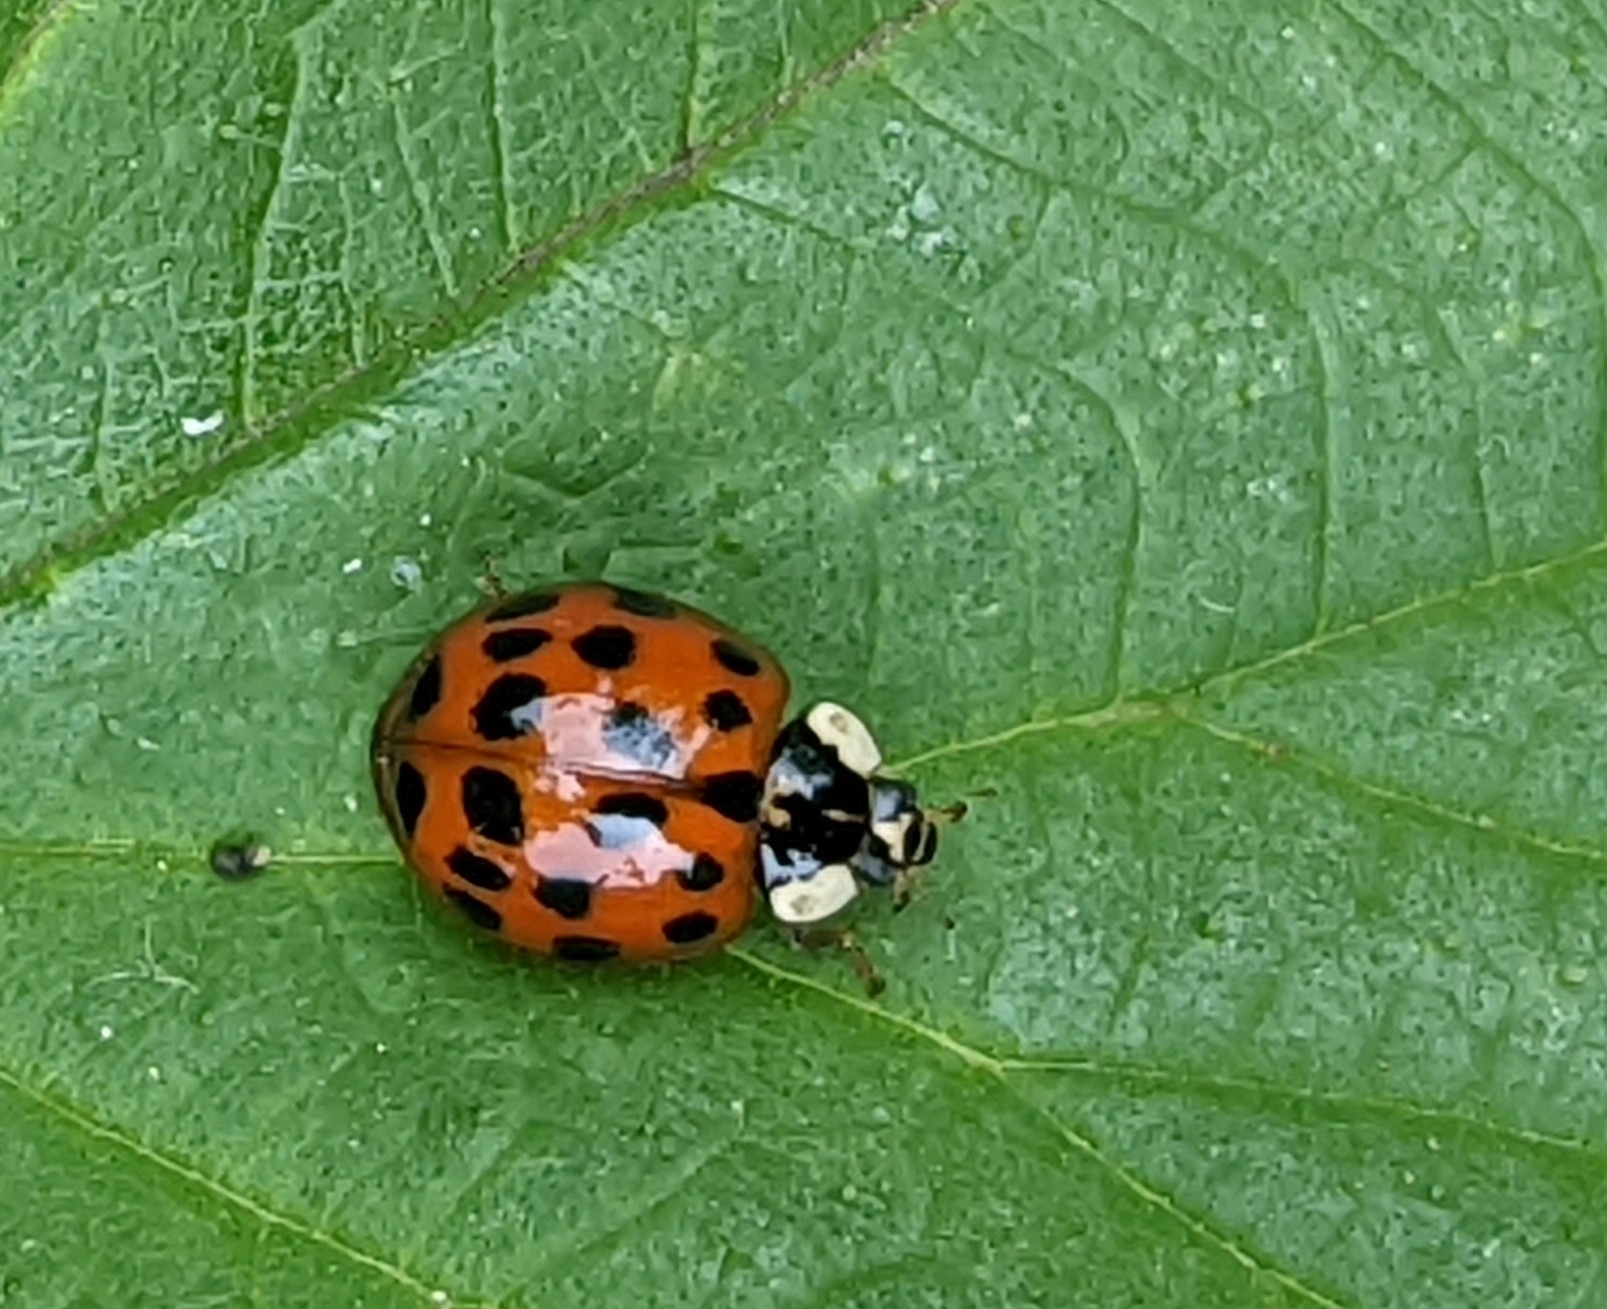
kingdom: Animalia
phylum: Arthropoda
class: Insecta
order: Coleoptera
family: Coccinellidae
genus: Harmonia
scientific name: Harmonia axyridis
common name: Harlequin ladybird
